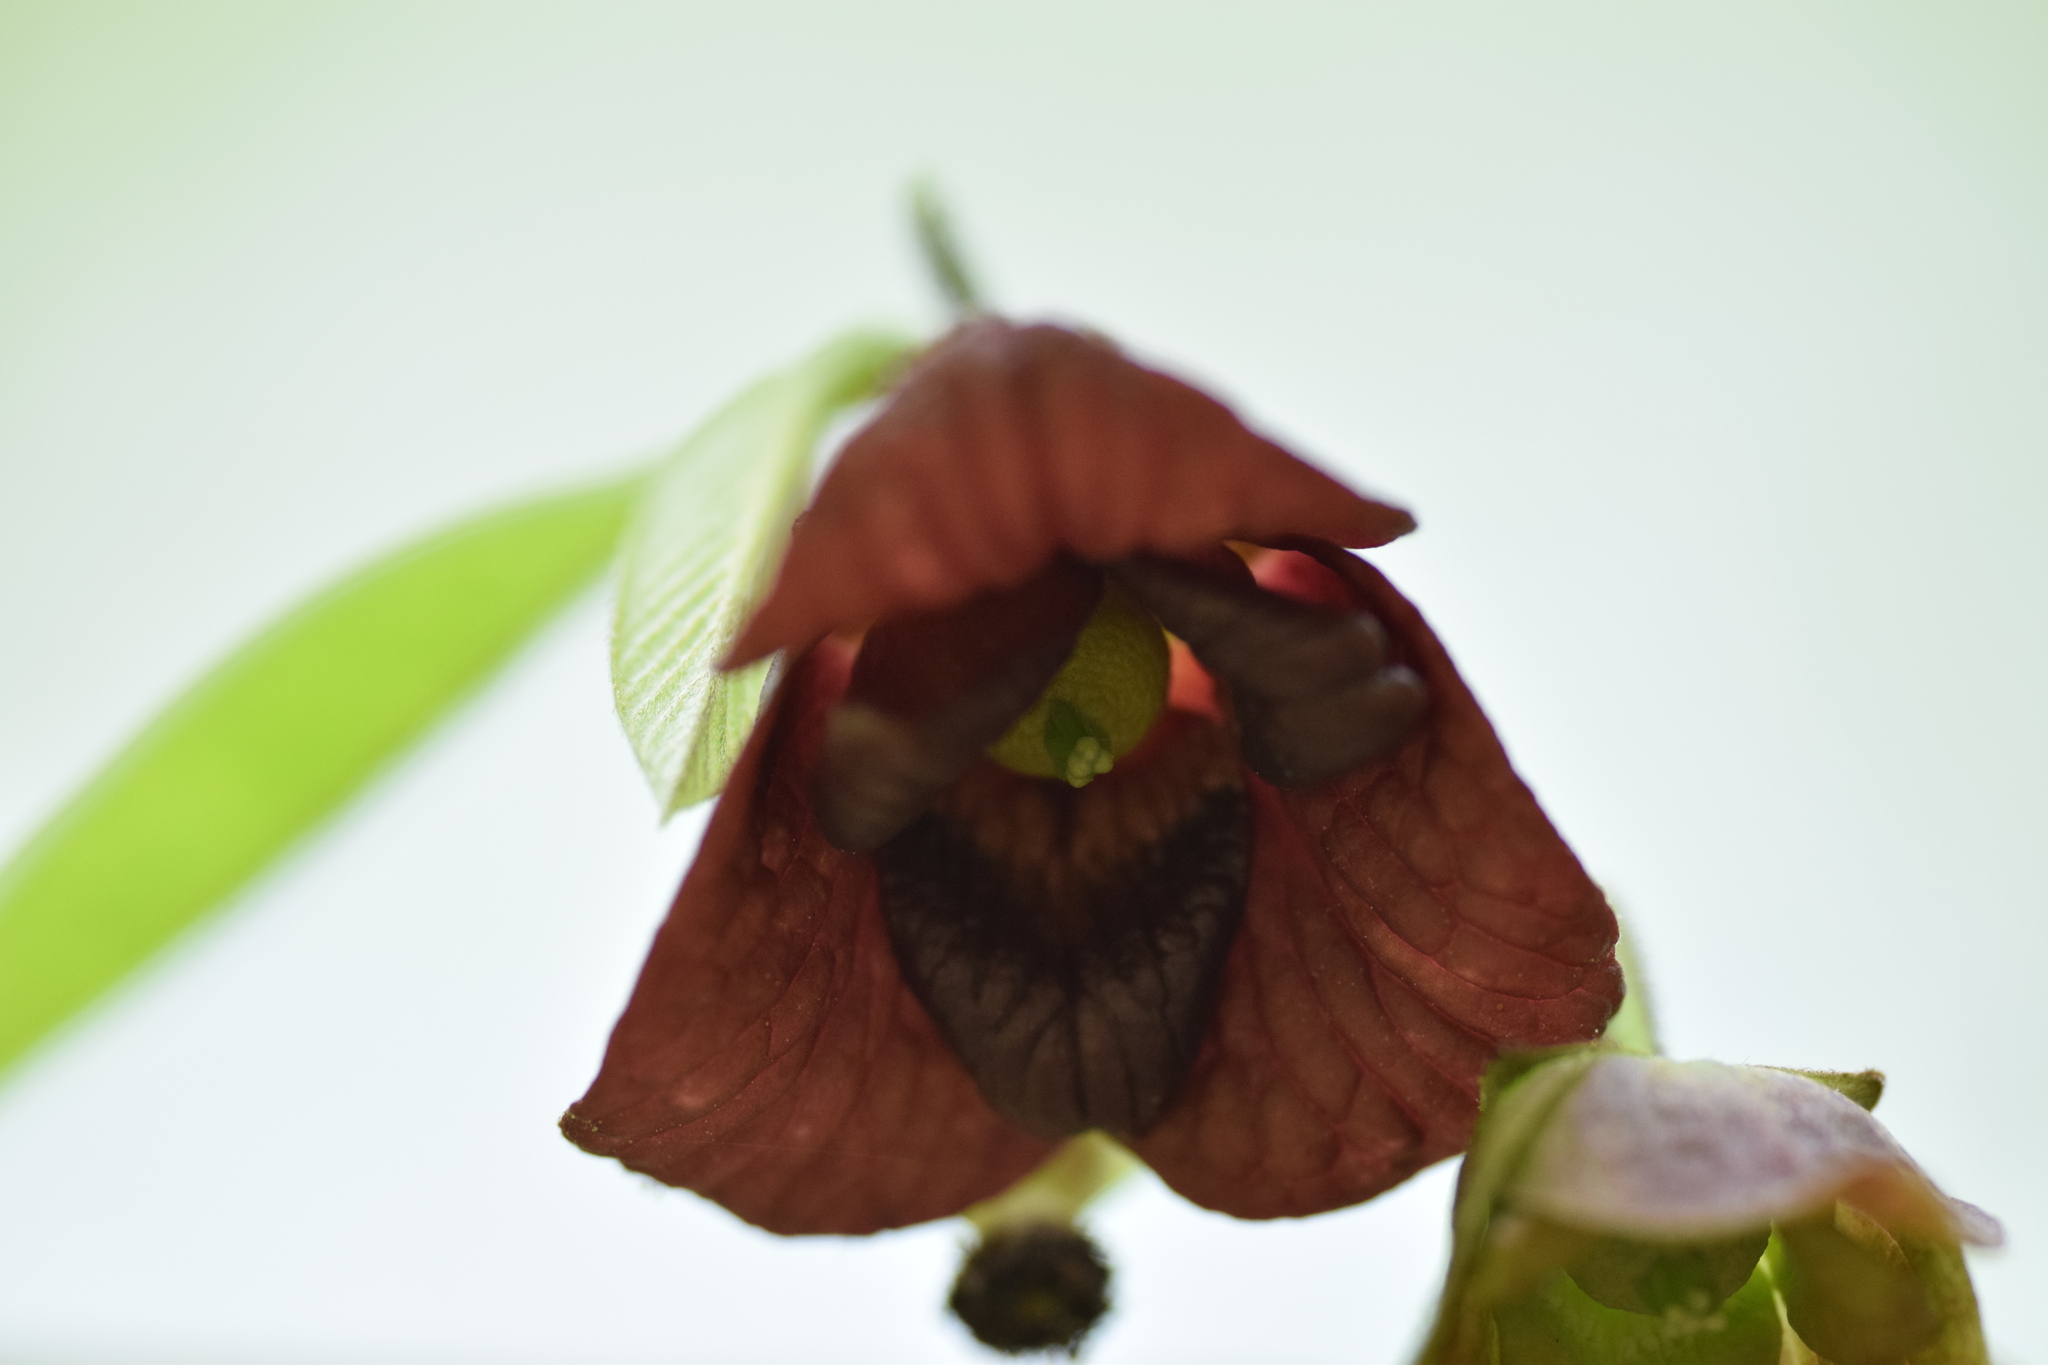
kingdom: Plantae
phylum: Tracheophyta
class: Magnoliopsida
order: Magnoliales
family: Annonaceae
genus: Asimina
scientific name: Asimina triloba
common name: Dog-banana
